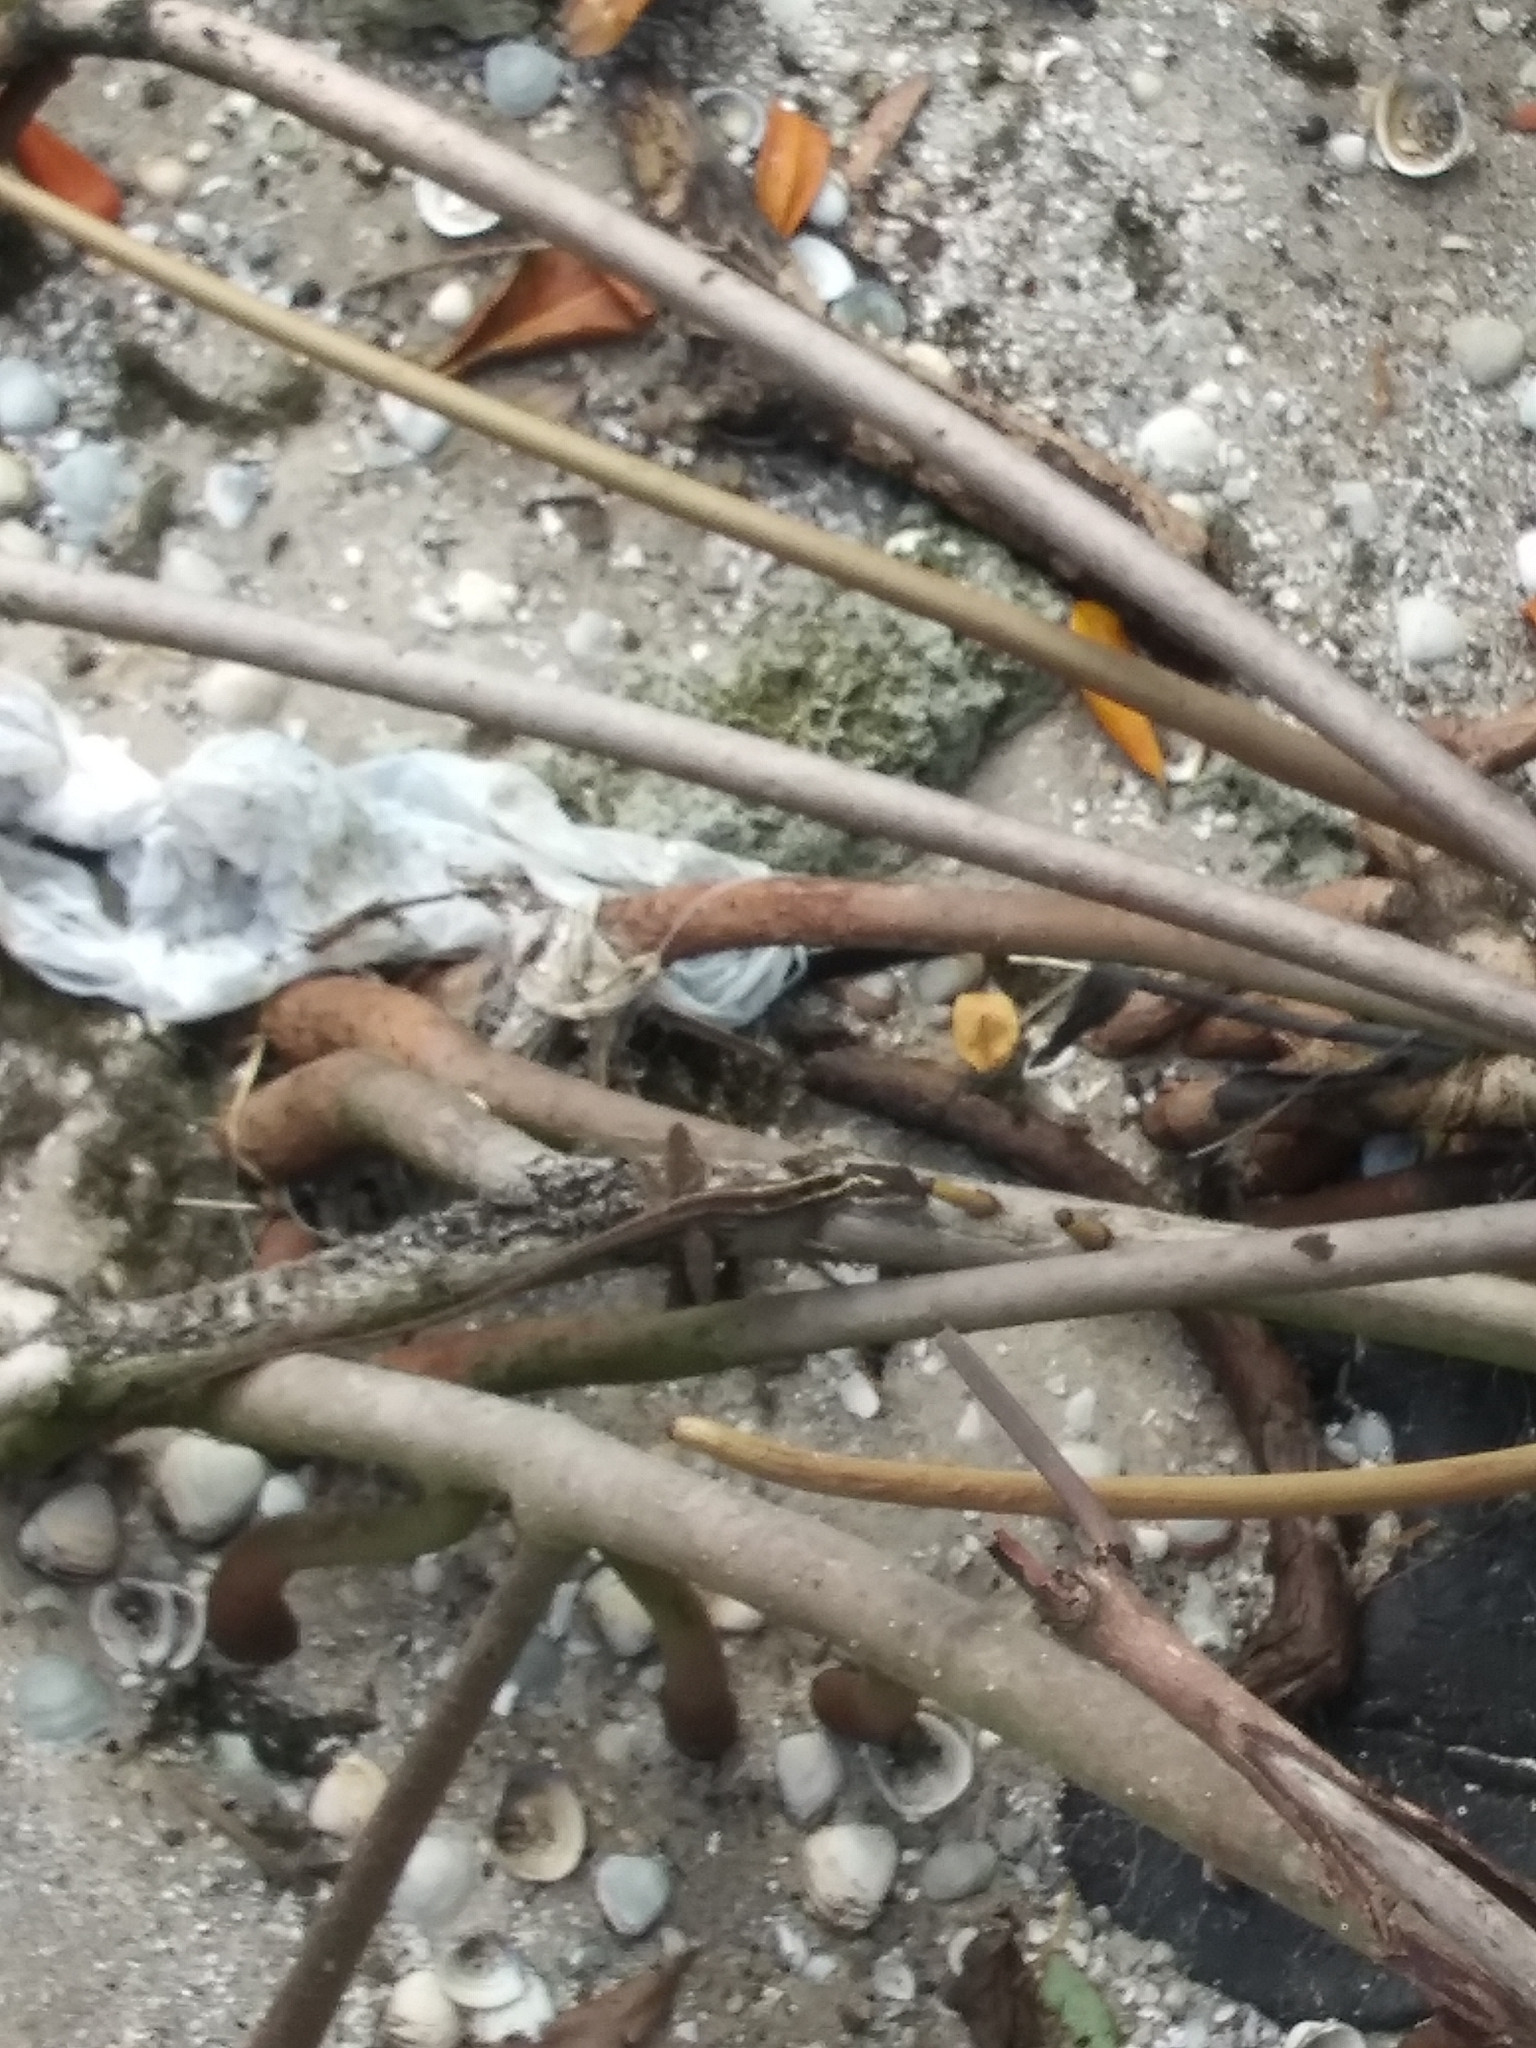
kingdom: Animalia
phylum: Chordata
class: Squamata
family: Corytophanidae
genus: Basiliscus
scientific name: Basiliscus vittatus
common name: Brown basilisk
